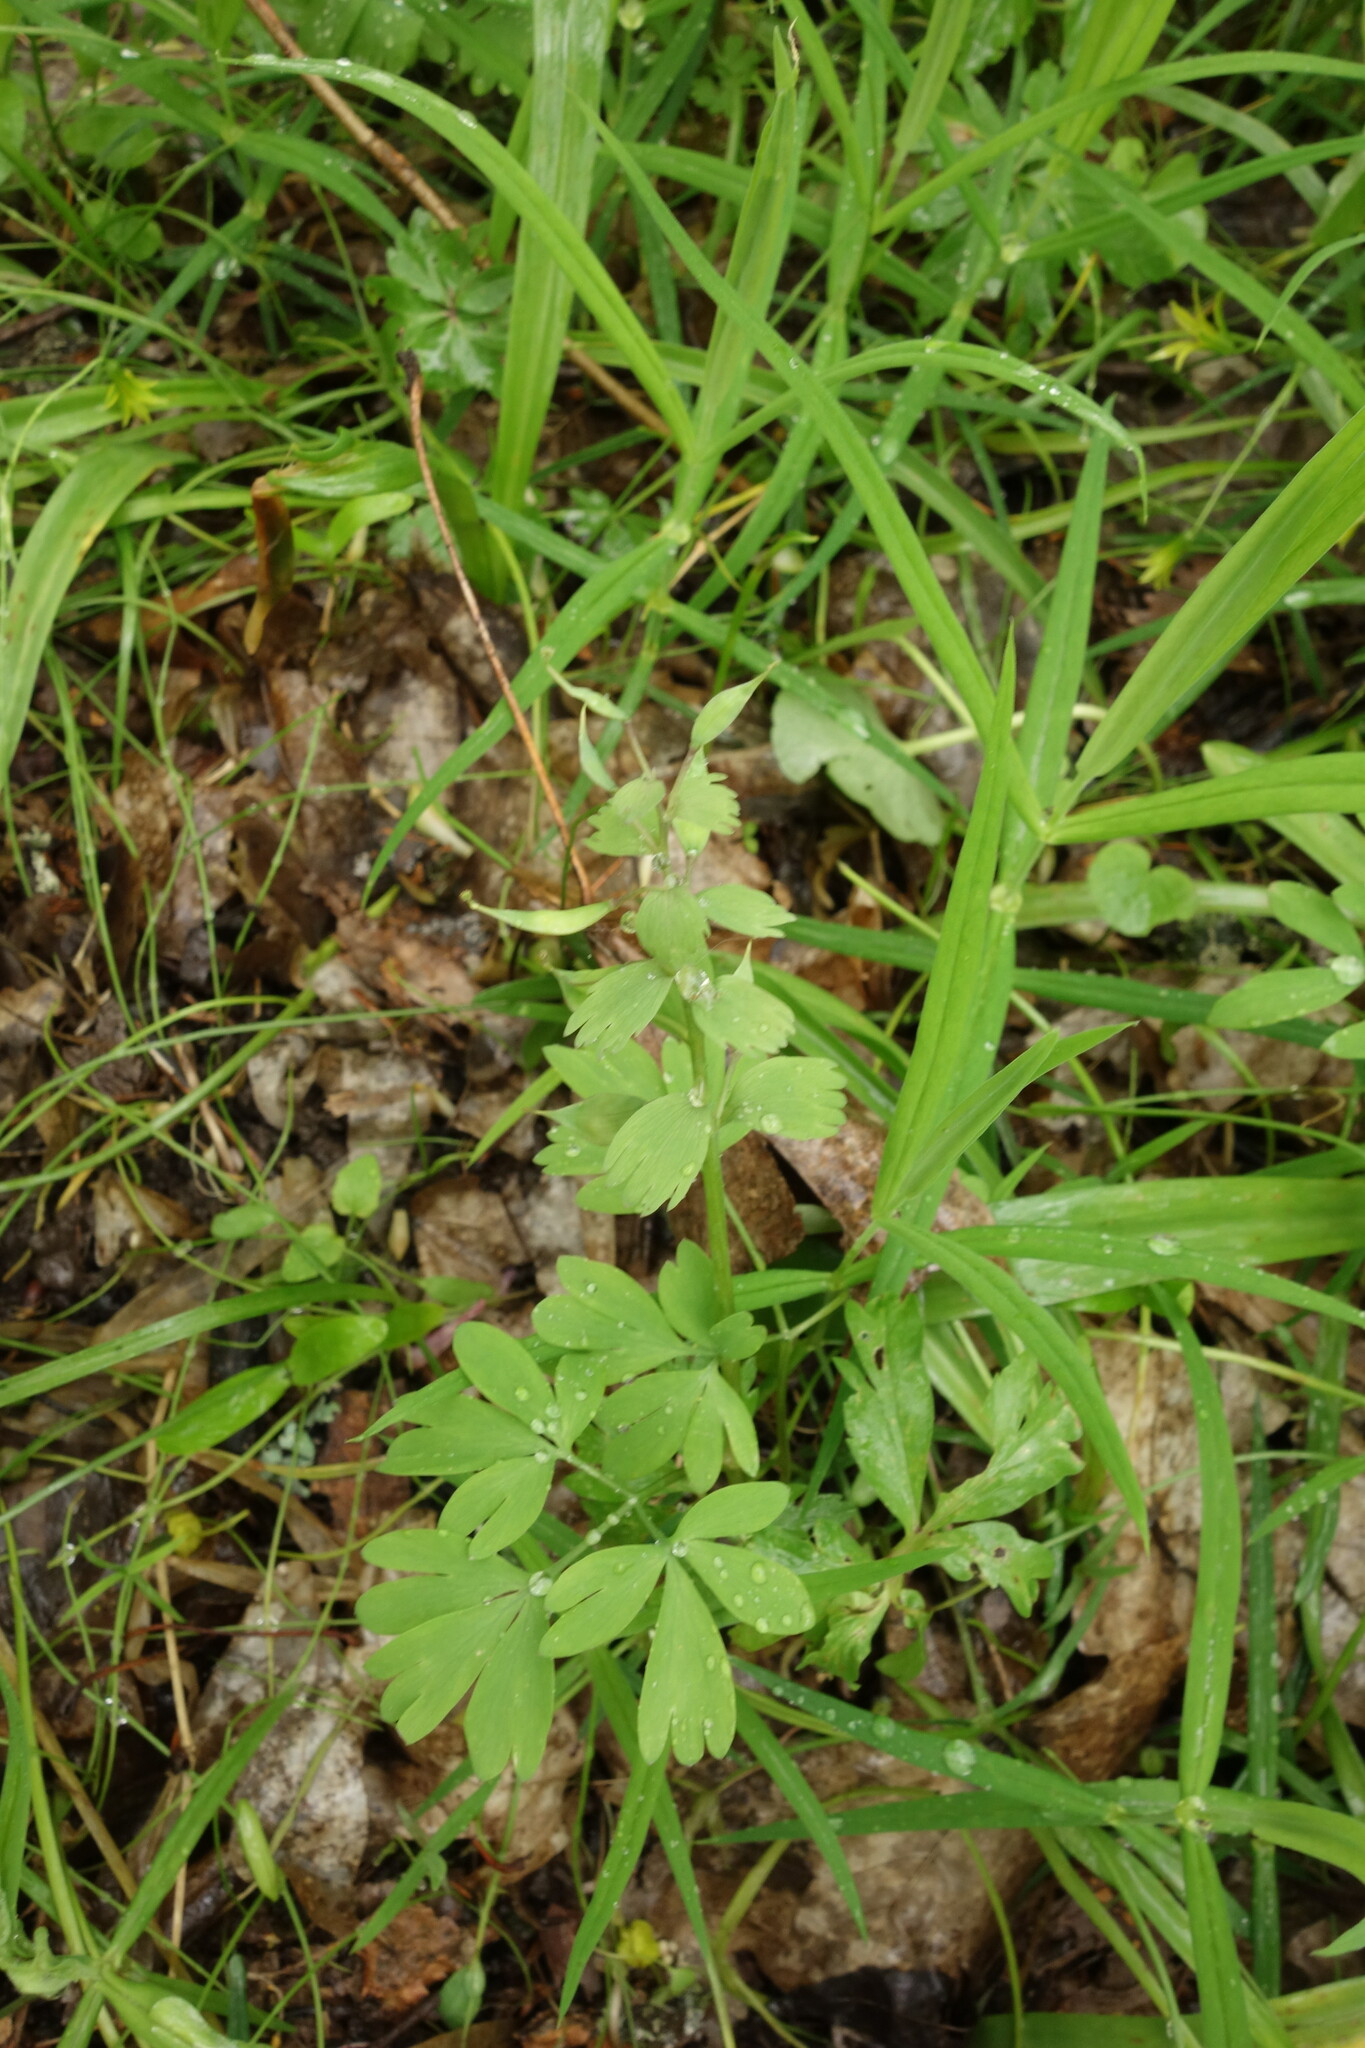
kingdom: Plantae
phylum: Tracheophyta
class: Magnoliopsida
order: Ranunculales
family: Papaveraceae
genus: Corydalis
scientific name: Corydalis solida
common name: Bird-in-a-bush
